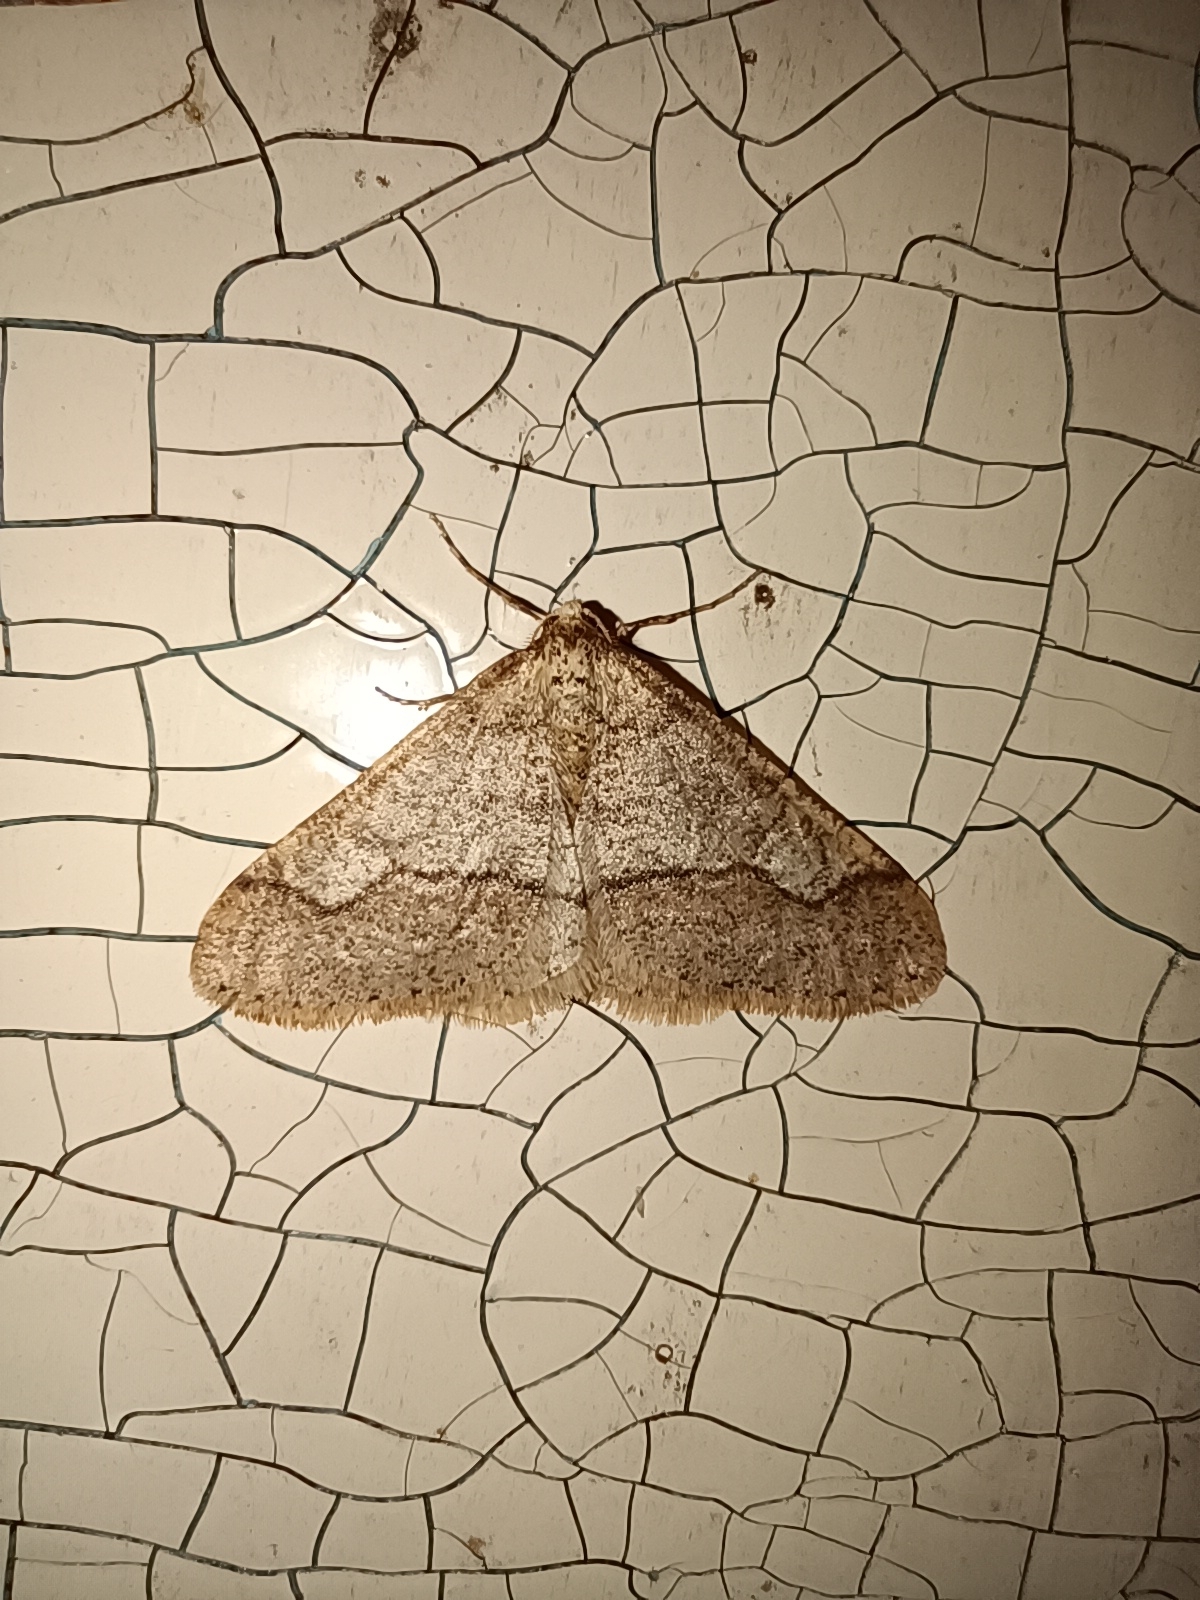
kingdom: Animalia
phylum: Arthropoda
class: Insecta
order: Lepidoptera
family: Geometridae
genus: Agriopis
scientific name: Agriopis marginaria
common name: Dotted border
